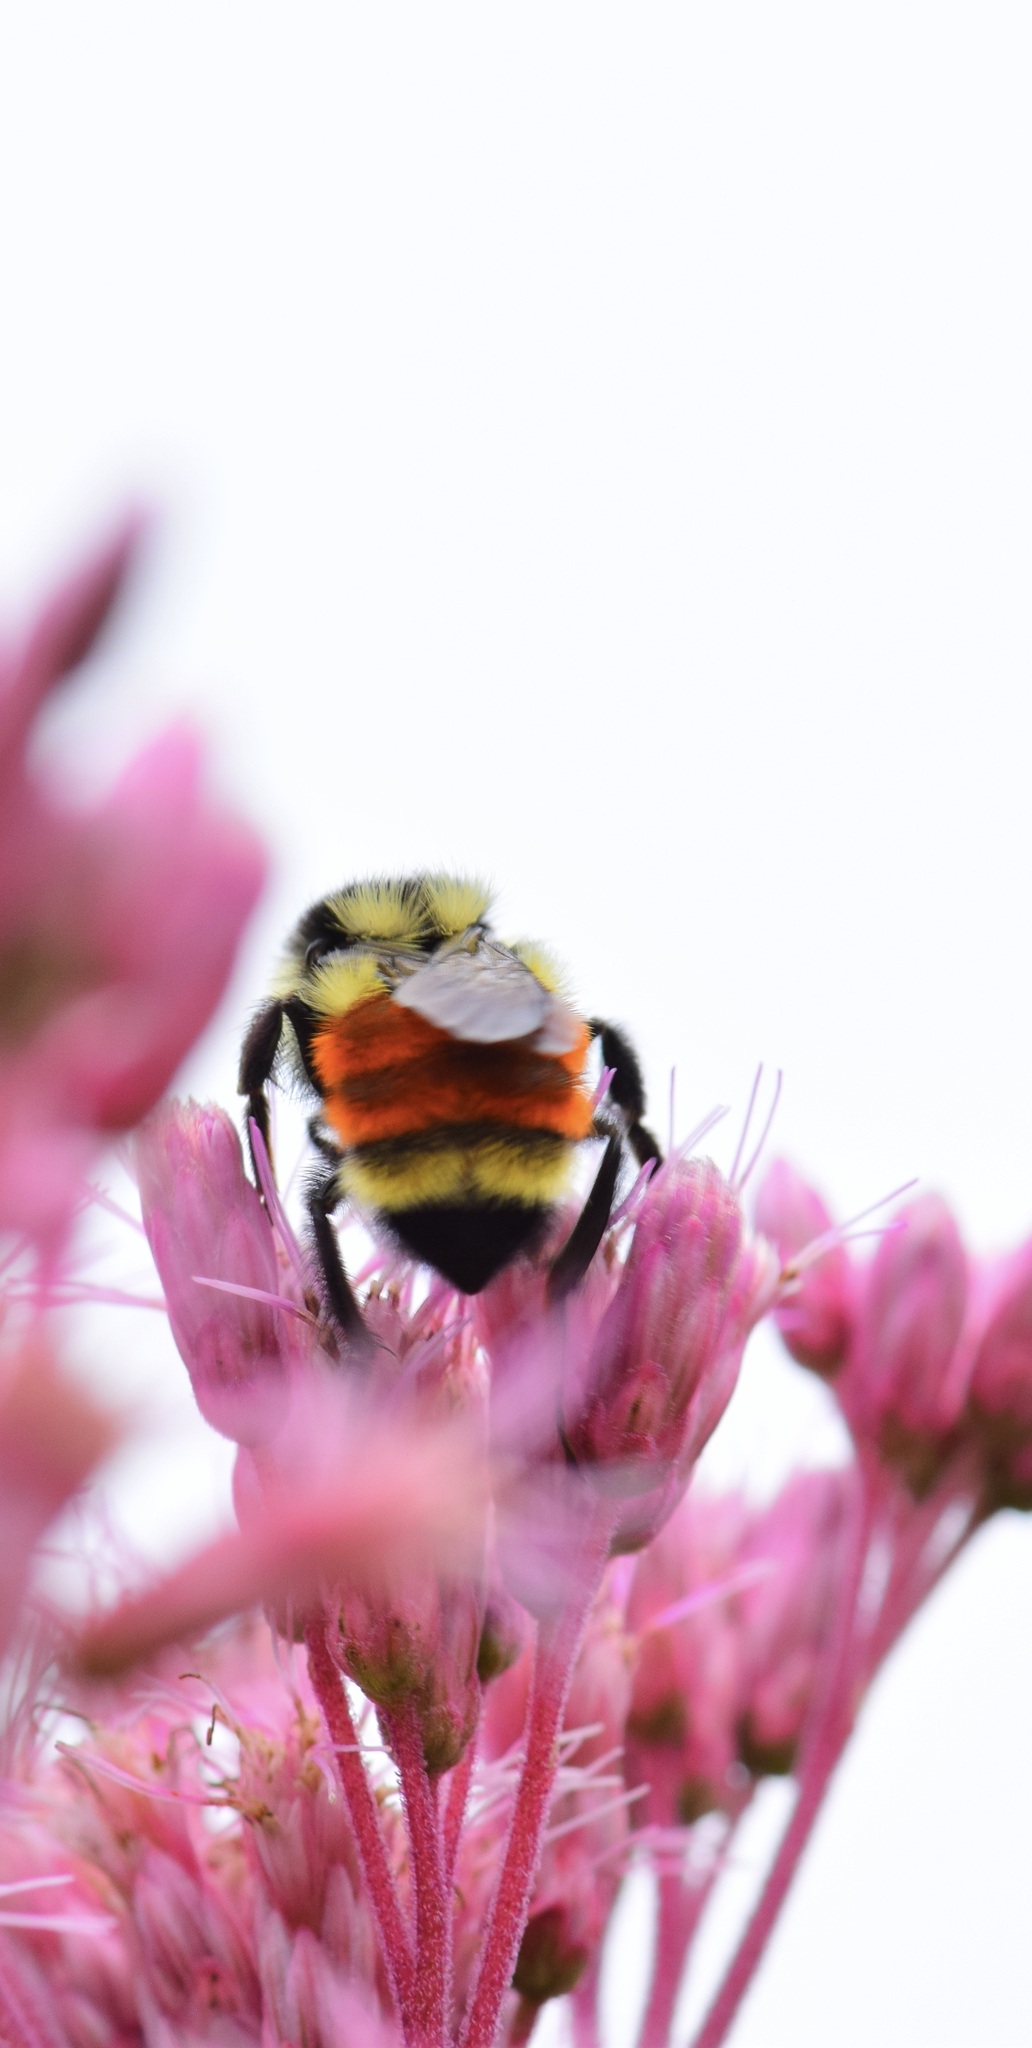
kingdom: Animalia
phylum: Arthropoda
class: Insecta
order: Hymenoptera
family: Apidae
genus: Bombus
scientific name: Bombus ternarius
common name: Tri-colored bumble bee
